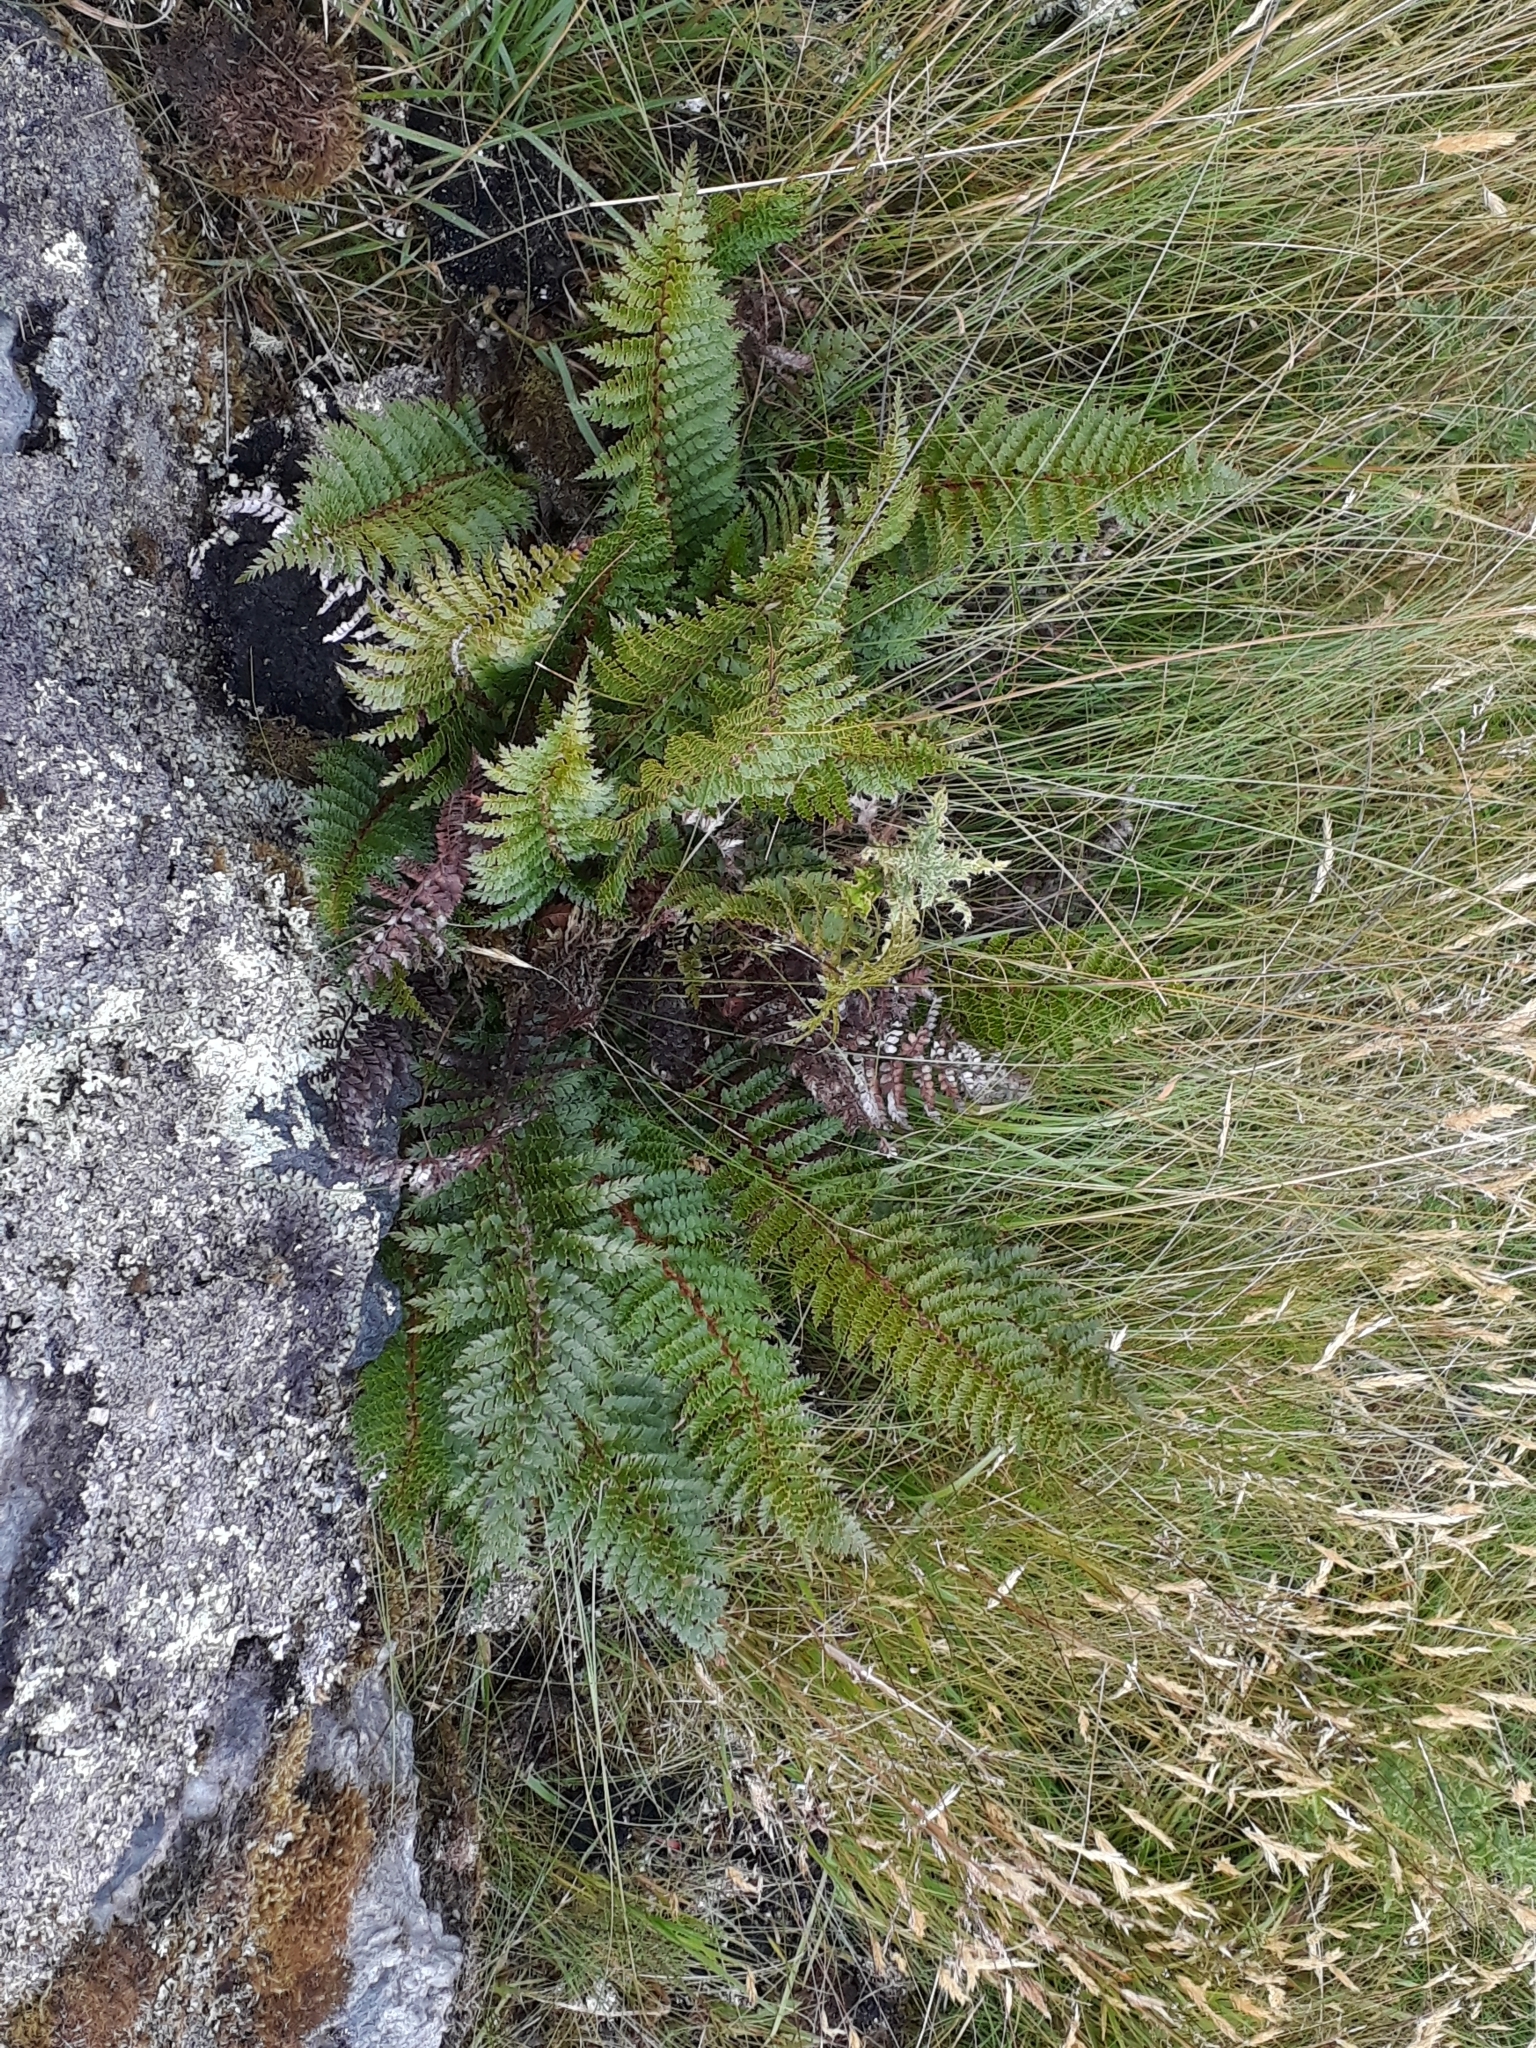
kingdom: Plantae
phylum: Tracheophyta
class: Polypodiopsida
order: Polypodiales
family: Dryopteridaceae
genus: Polystichum
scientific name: Polystichum vestitum
